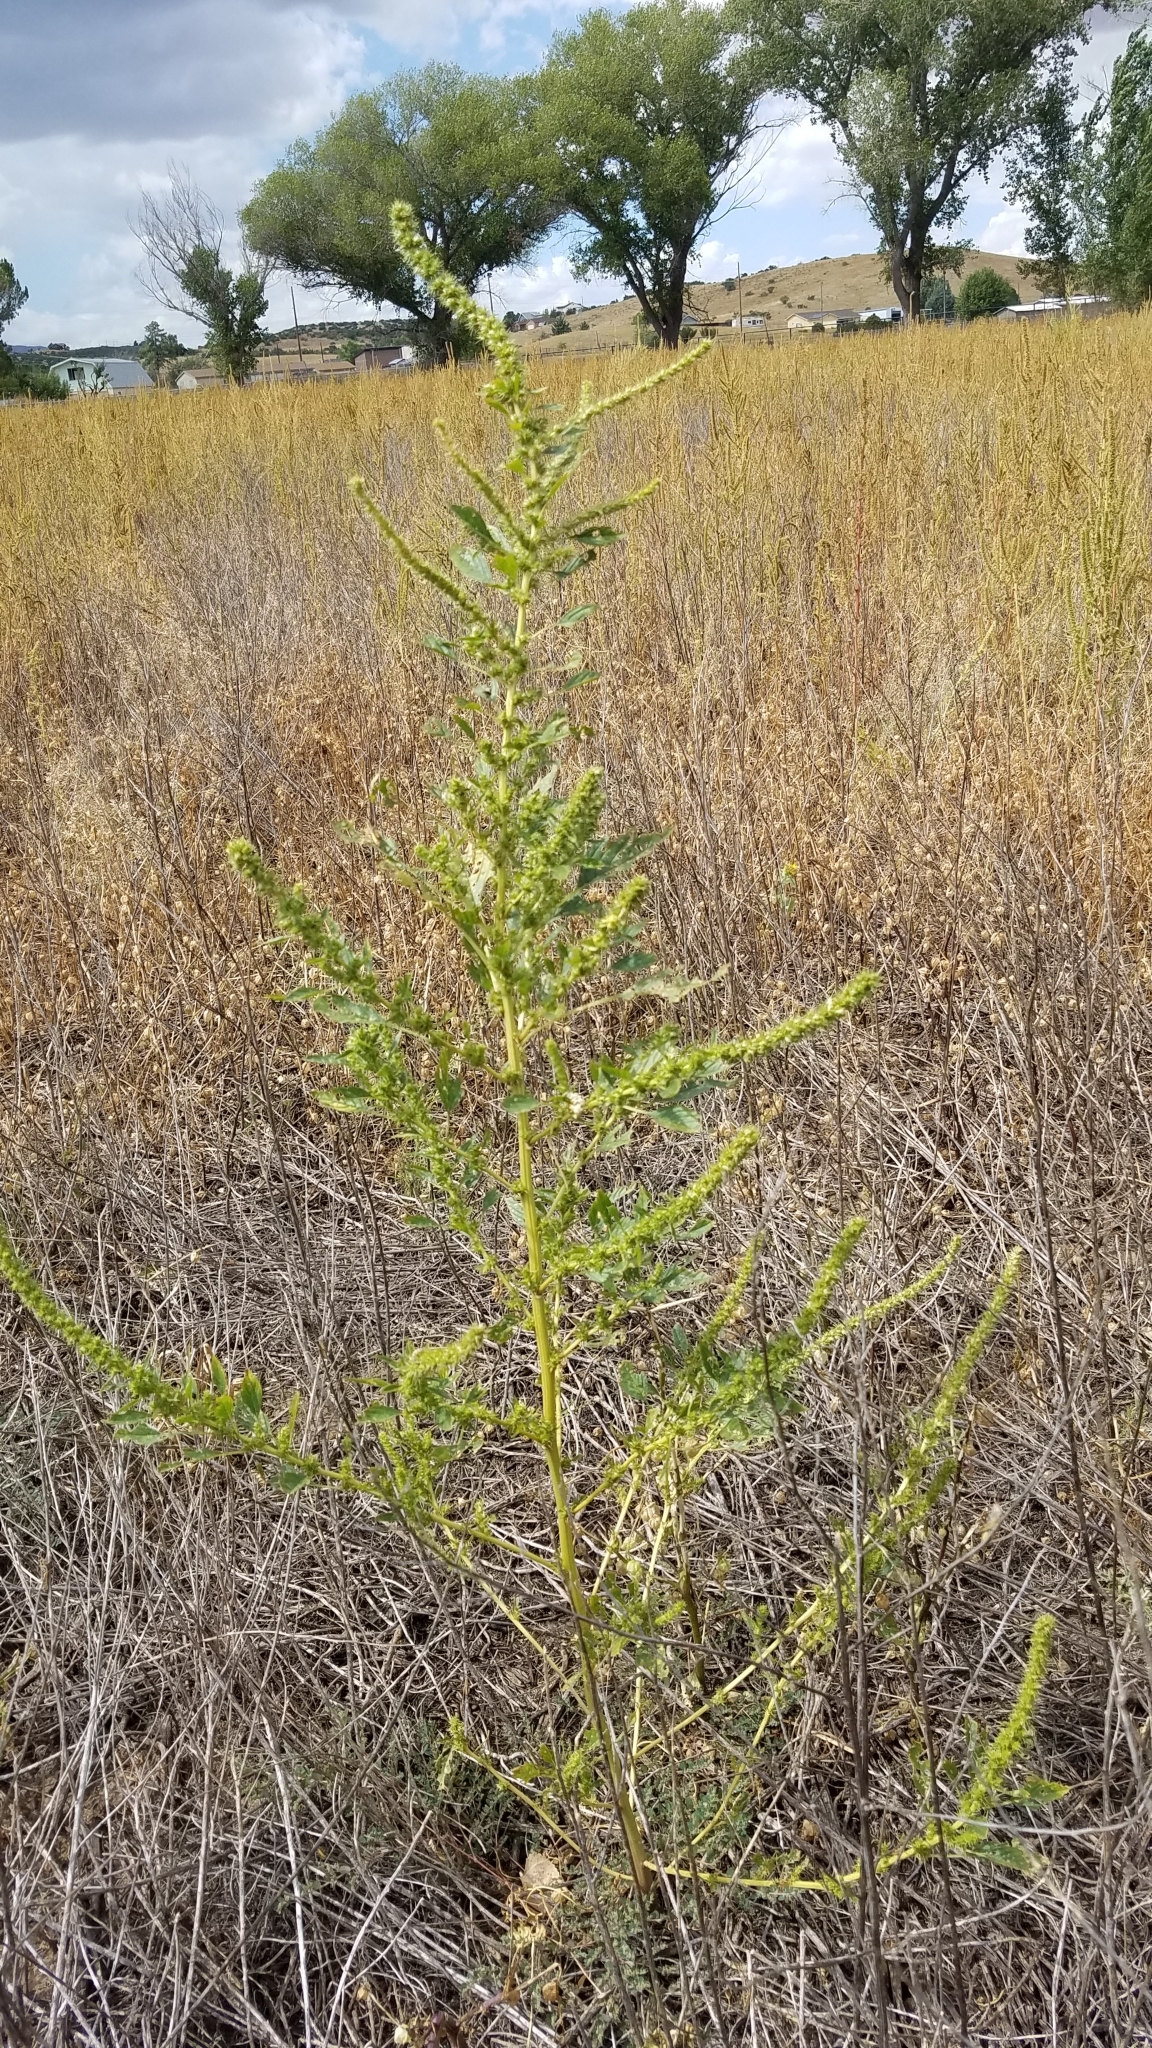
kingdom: Plantae
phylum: Tracheophyta
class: Magnoliopsida
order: Caryophyllales
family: Amaranthaceae
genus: Amaranthus
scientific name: Amaranthus palmeri
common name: Dioecious amaranth
